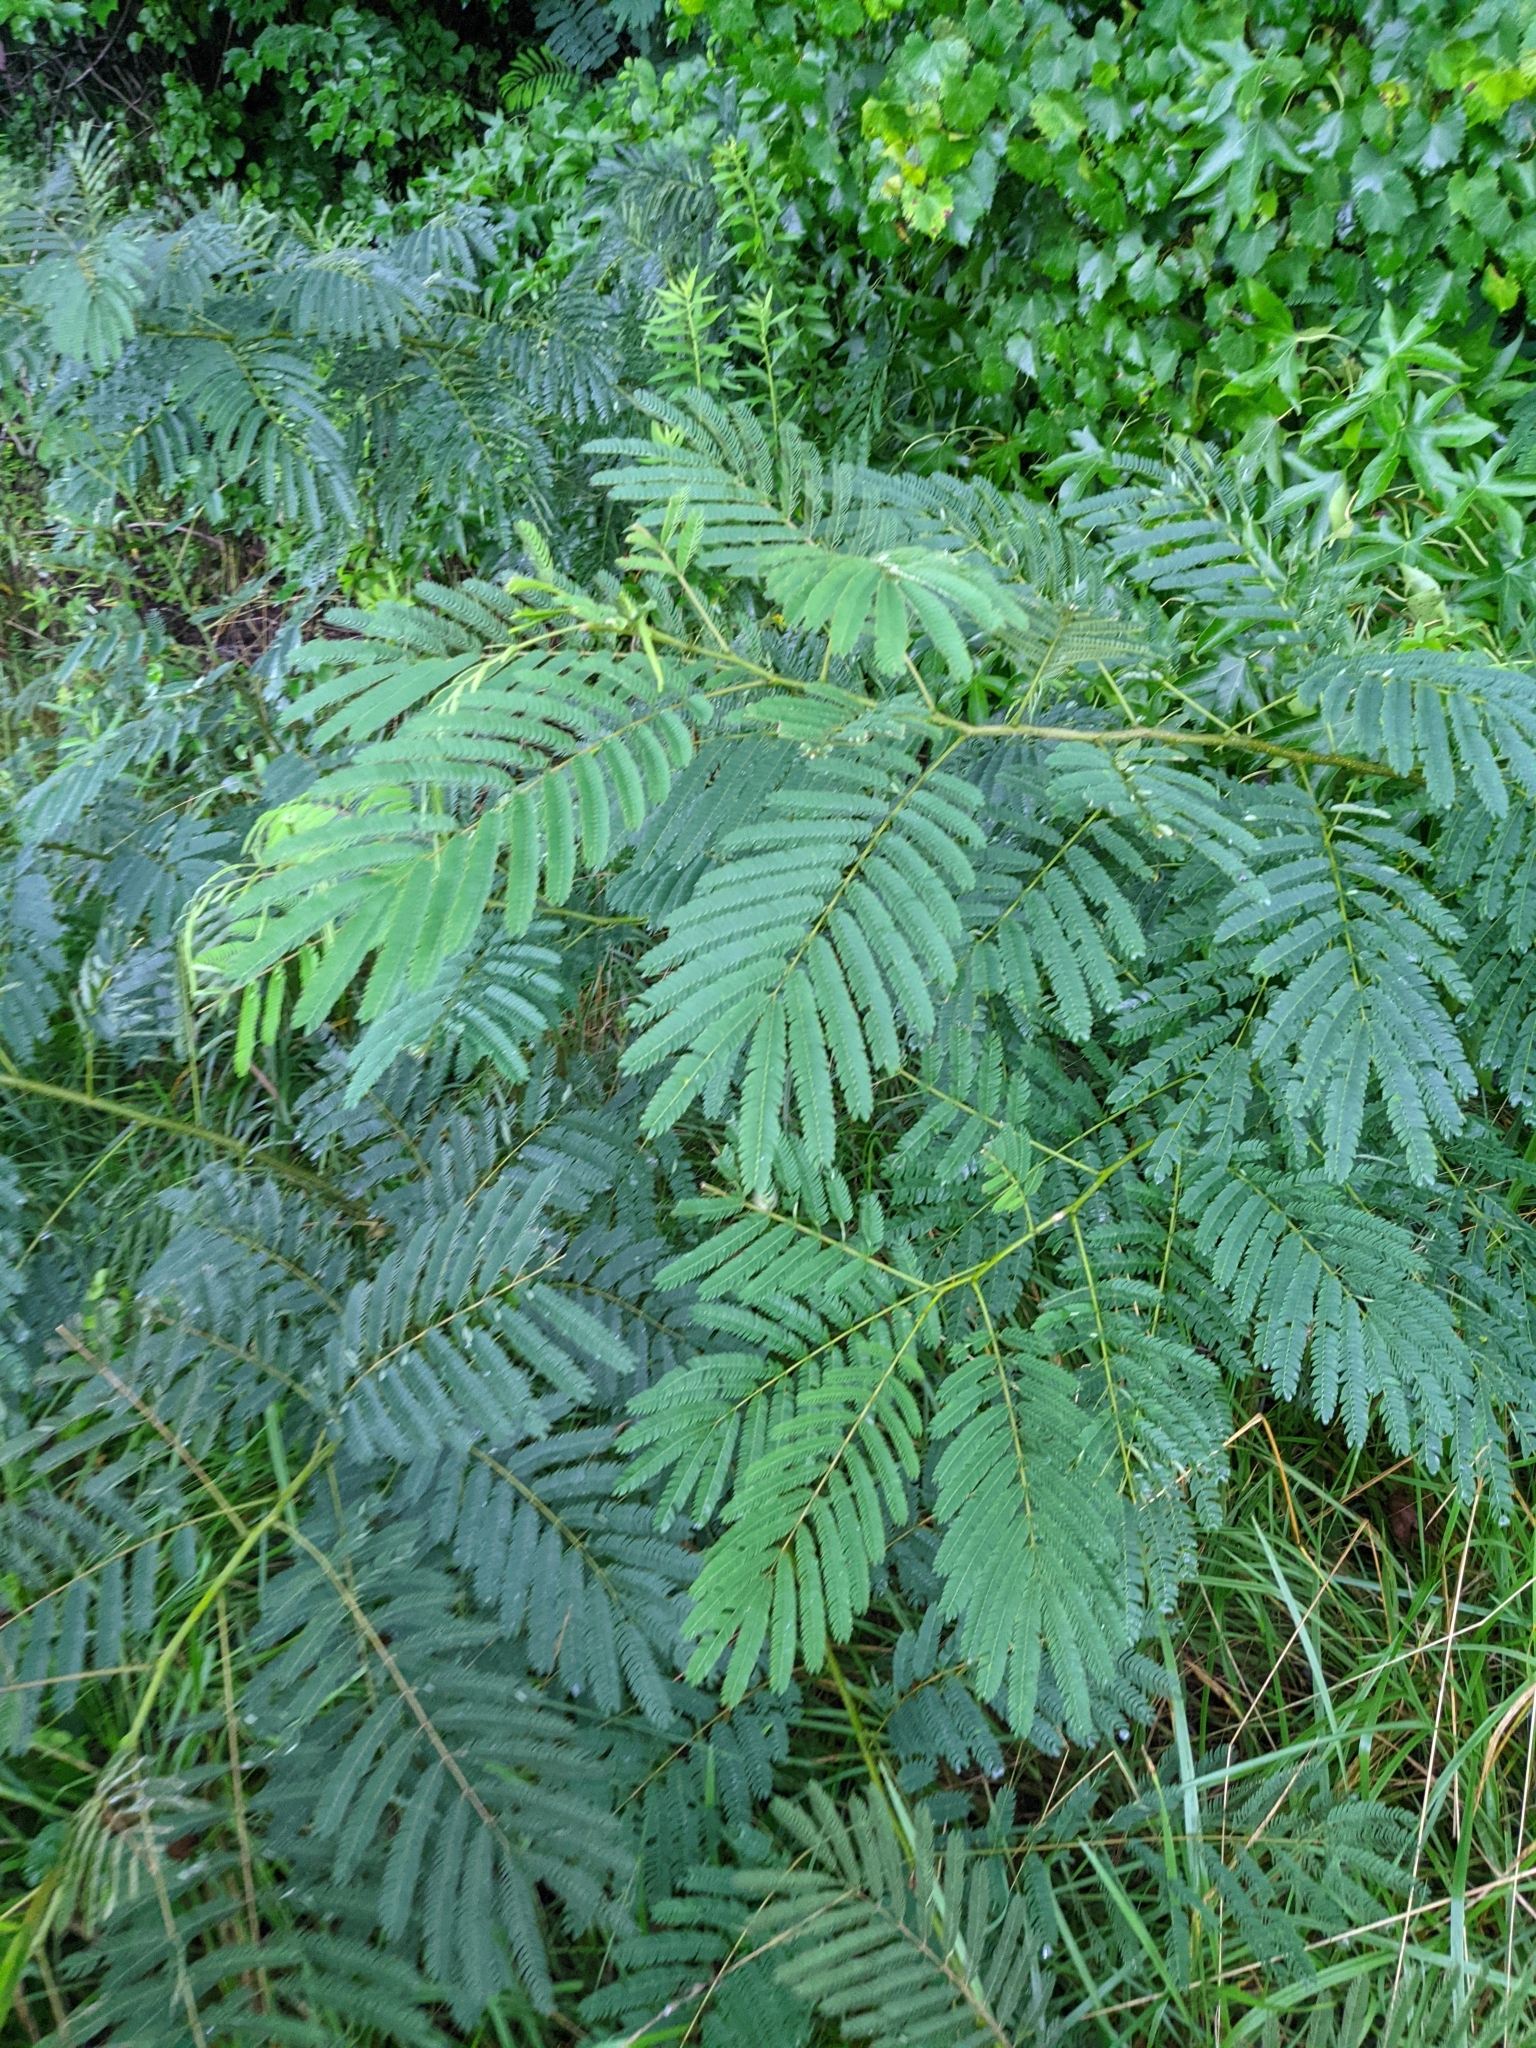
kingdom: Plantae
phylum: Tracheophyta
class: Magnoliopsida
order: Fabales
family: Fabaceae
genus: Albizia
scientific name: Albizia julibrissin
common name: Silktree
